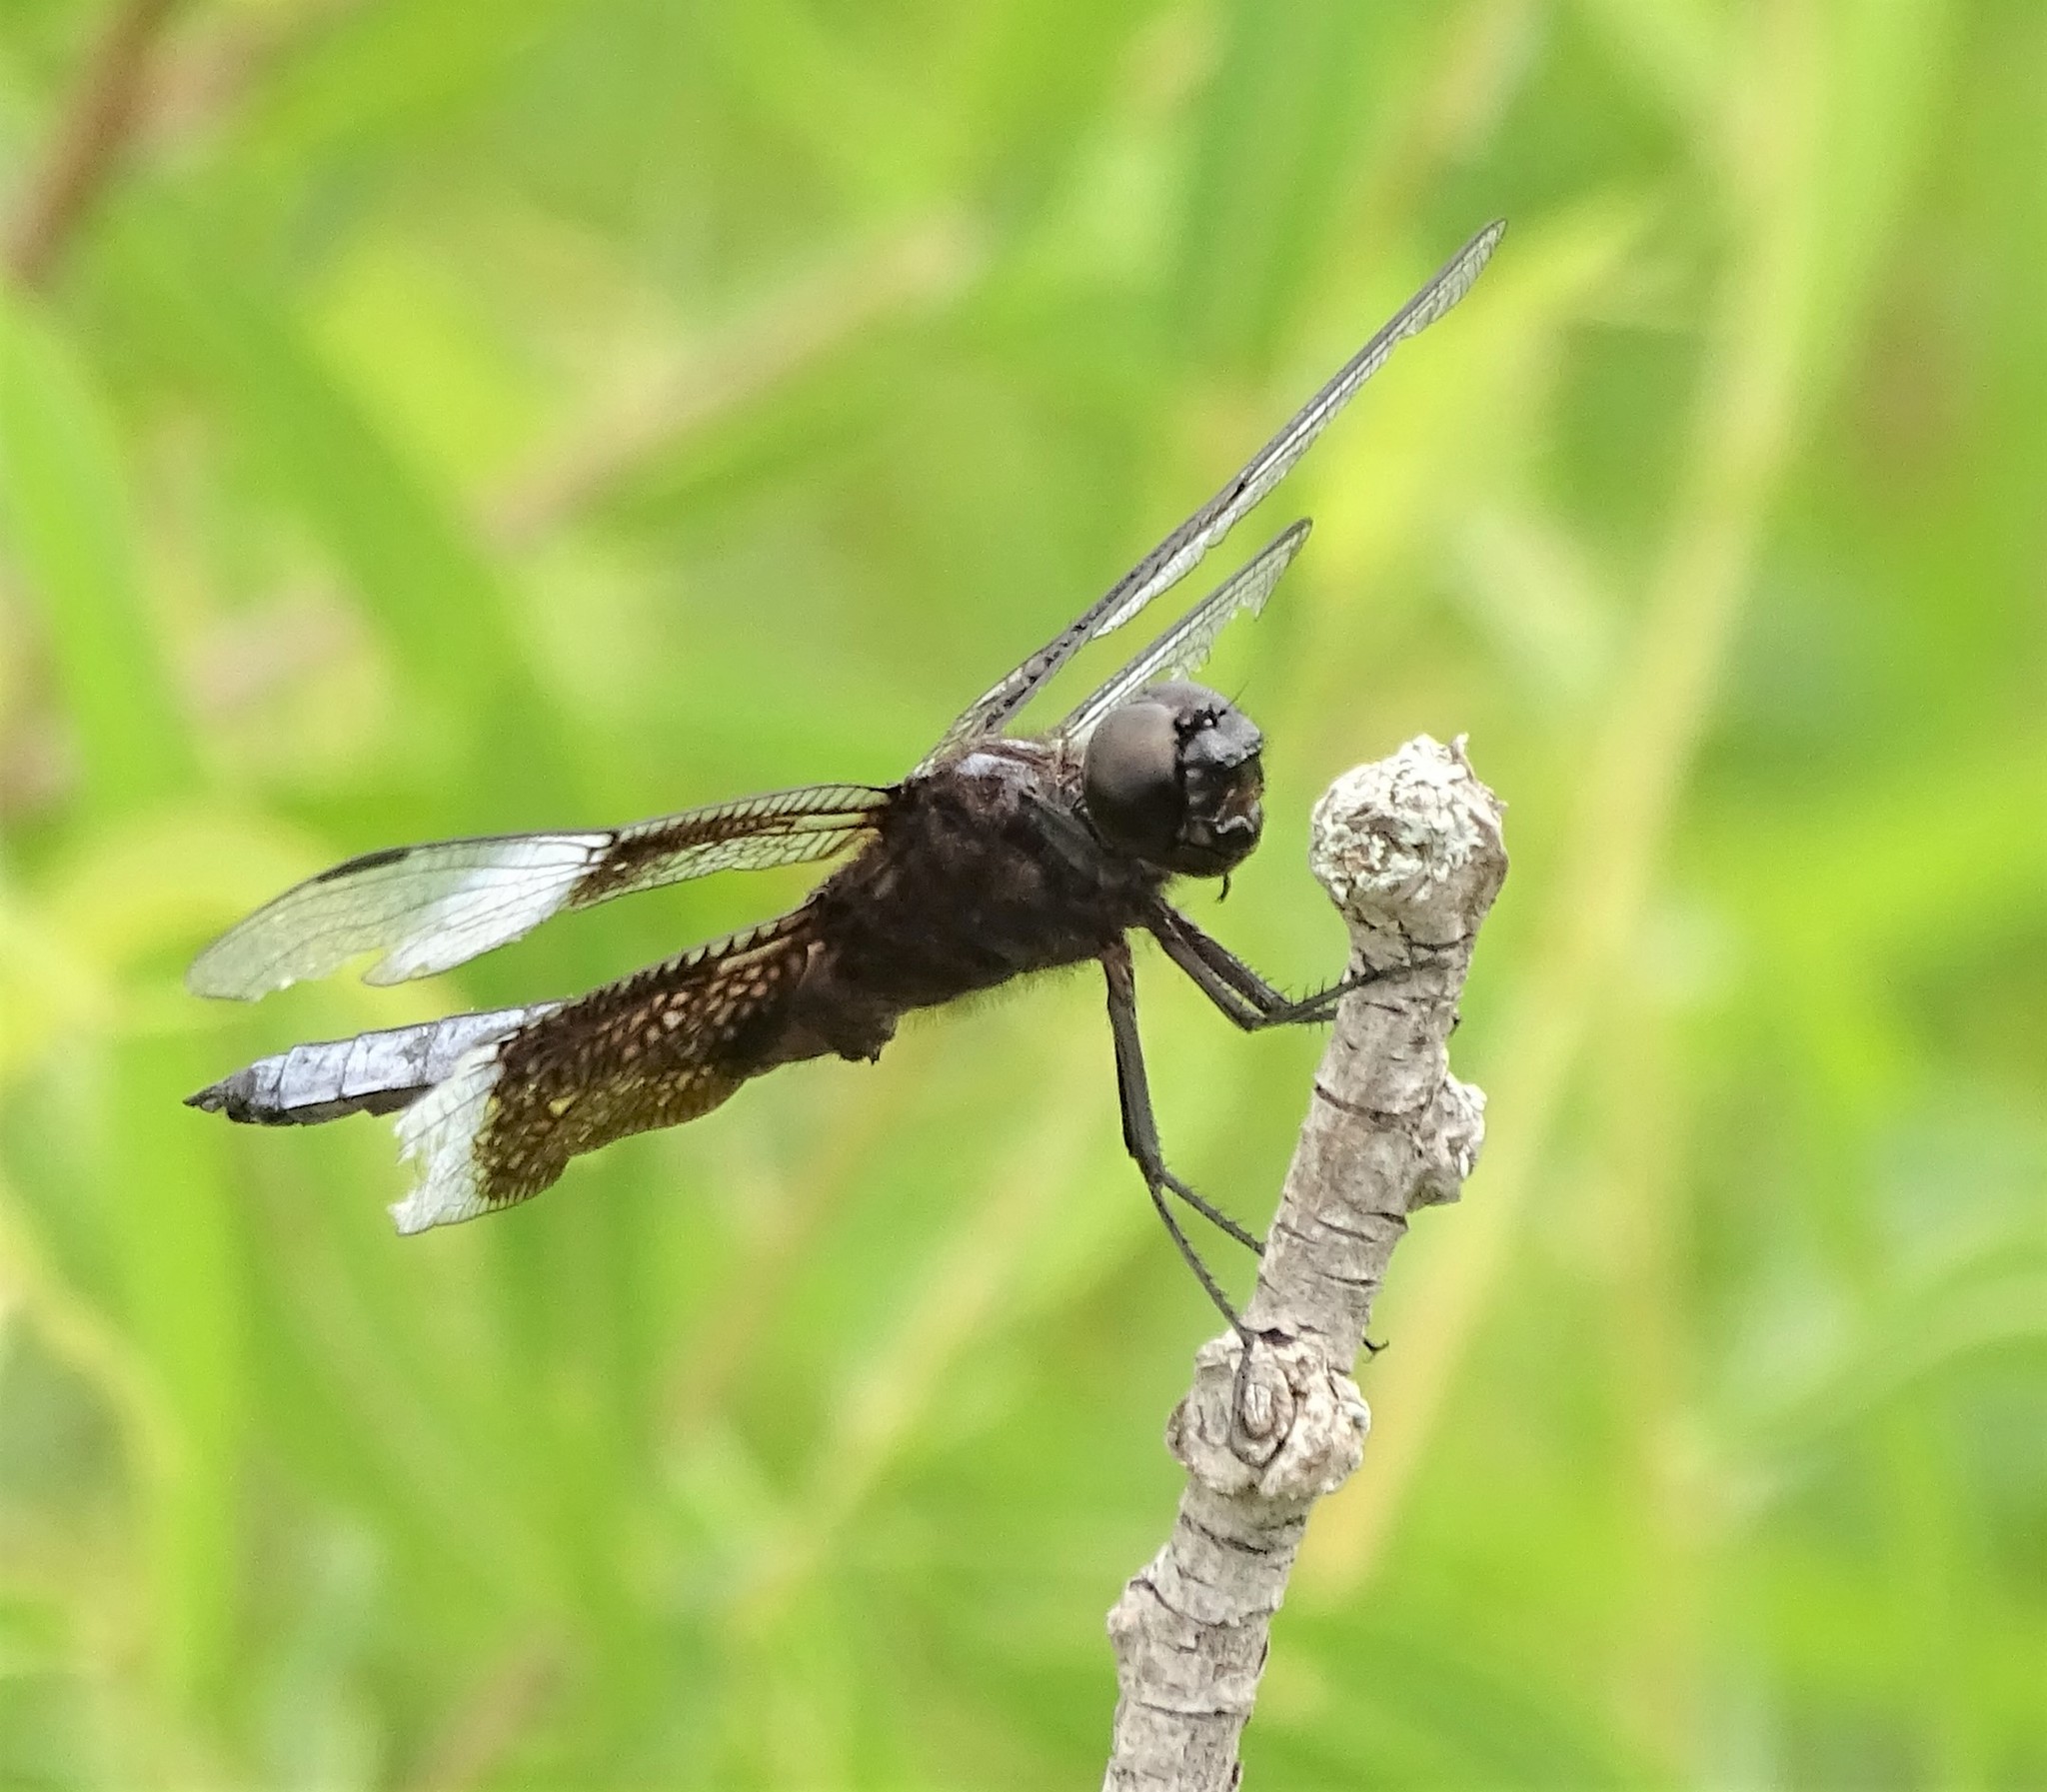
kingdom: Animalia
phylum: Arthropoda
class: Insecta
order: Odonata
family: Libellulidae
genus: Libellula
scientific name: Libellula luctuosa
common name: Widow skimmer
